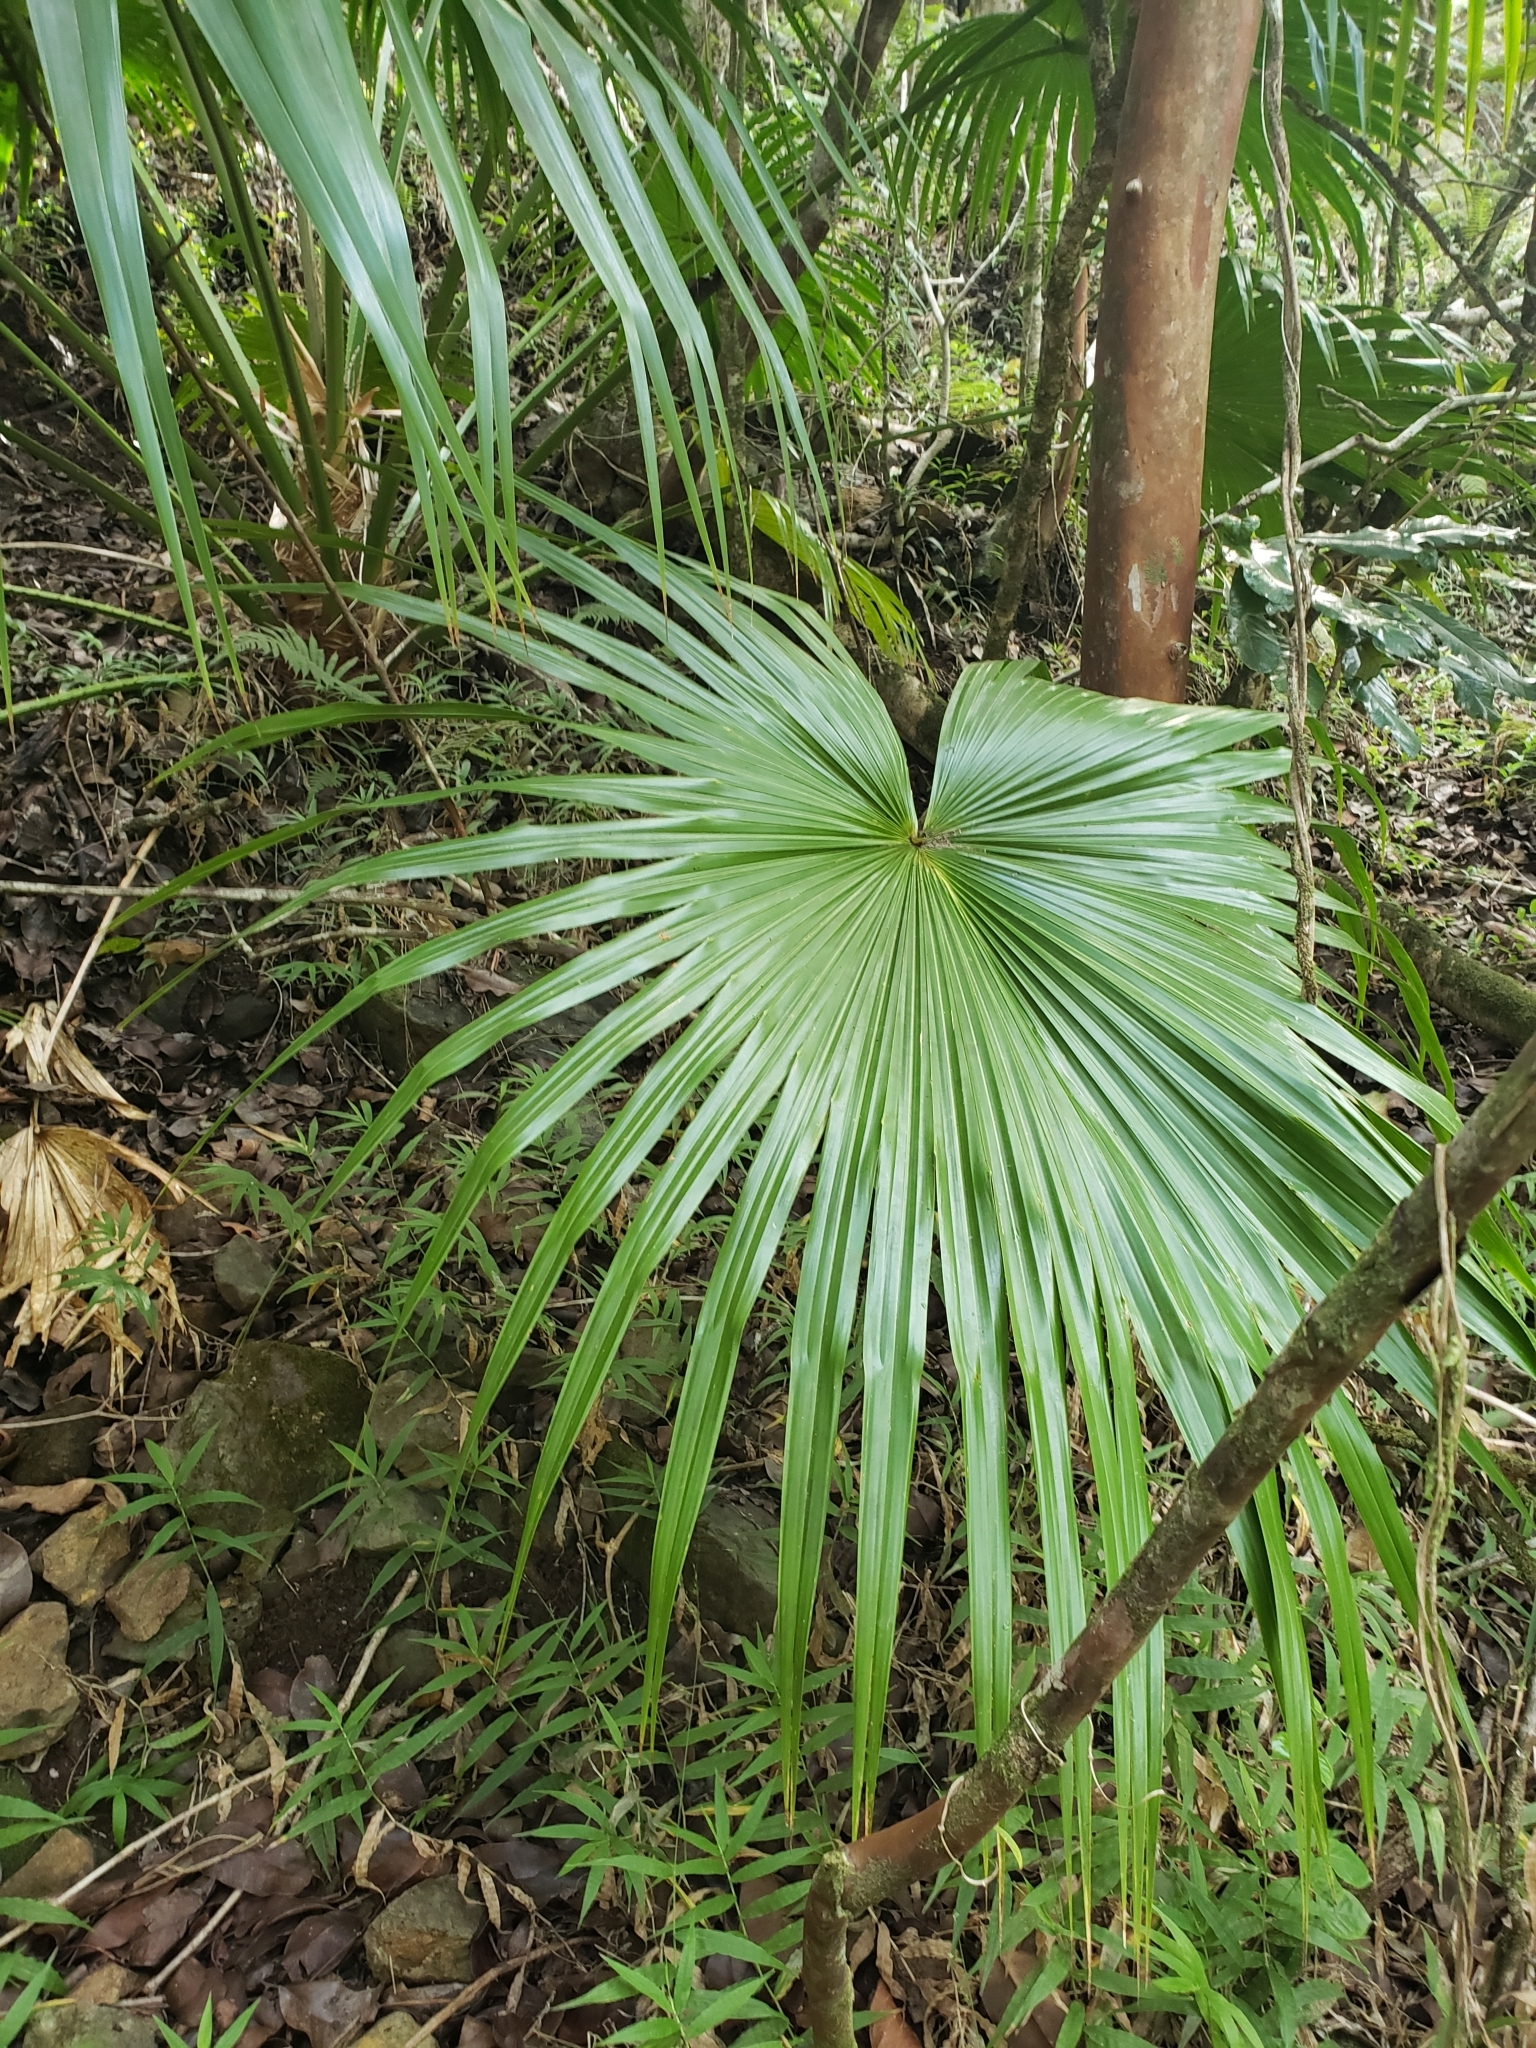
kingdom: Plantae
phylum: Tracheophyta
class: Liliopsida
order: Arecales
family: Arecaceae
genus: Livistona
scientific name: Livistona chinensis
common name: Fountain palm
